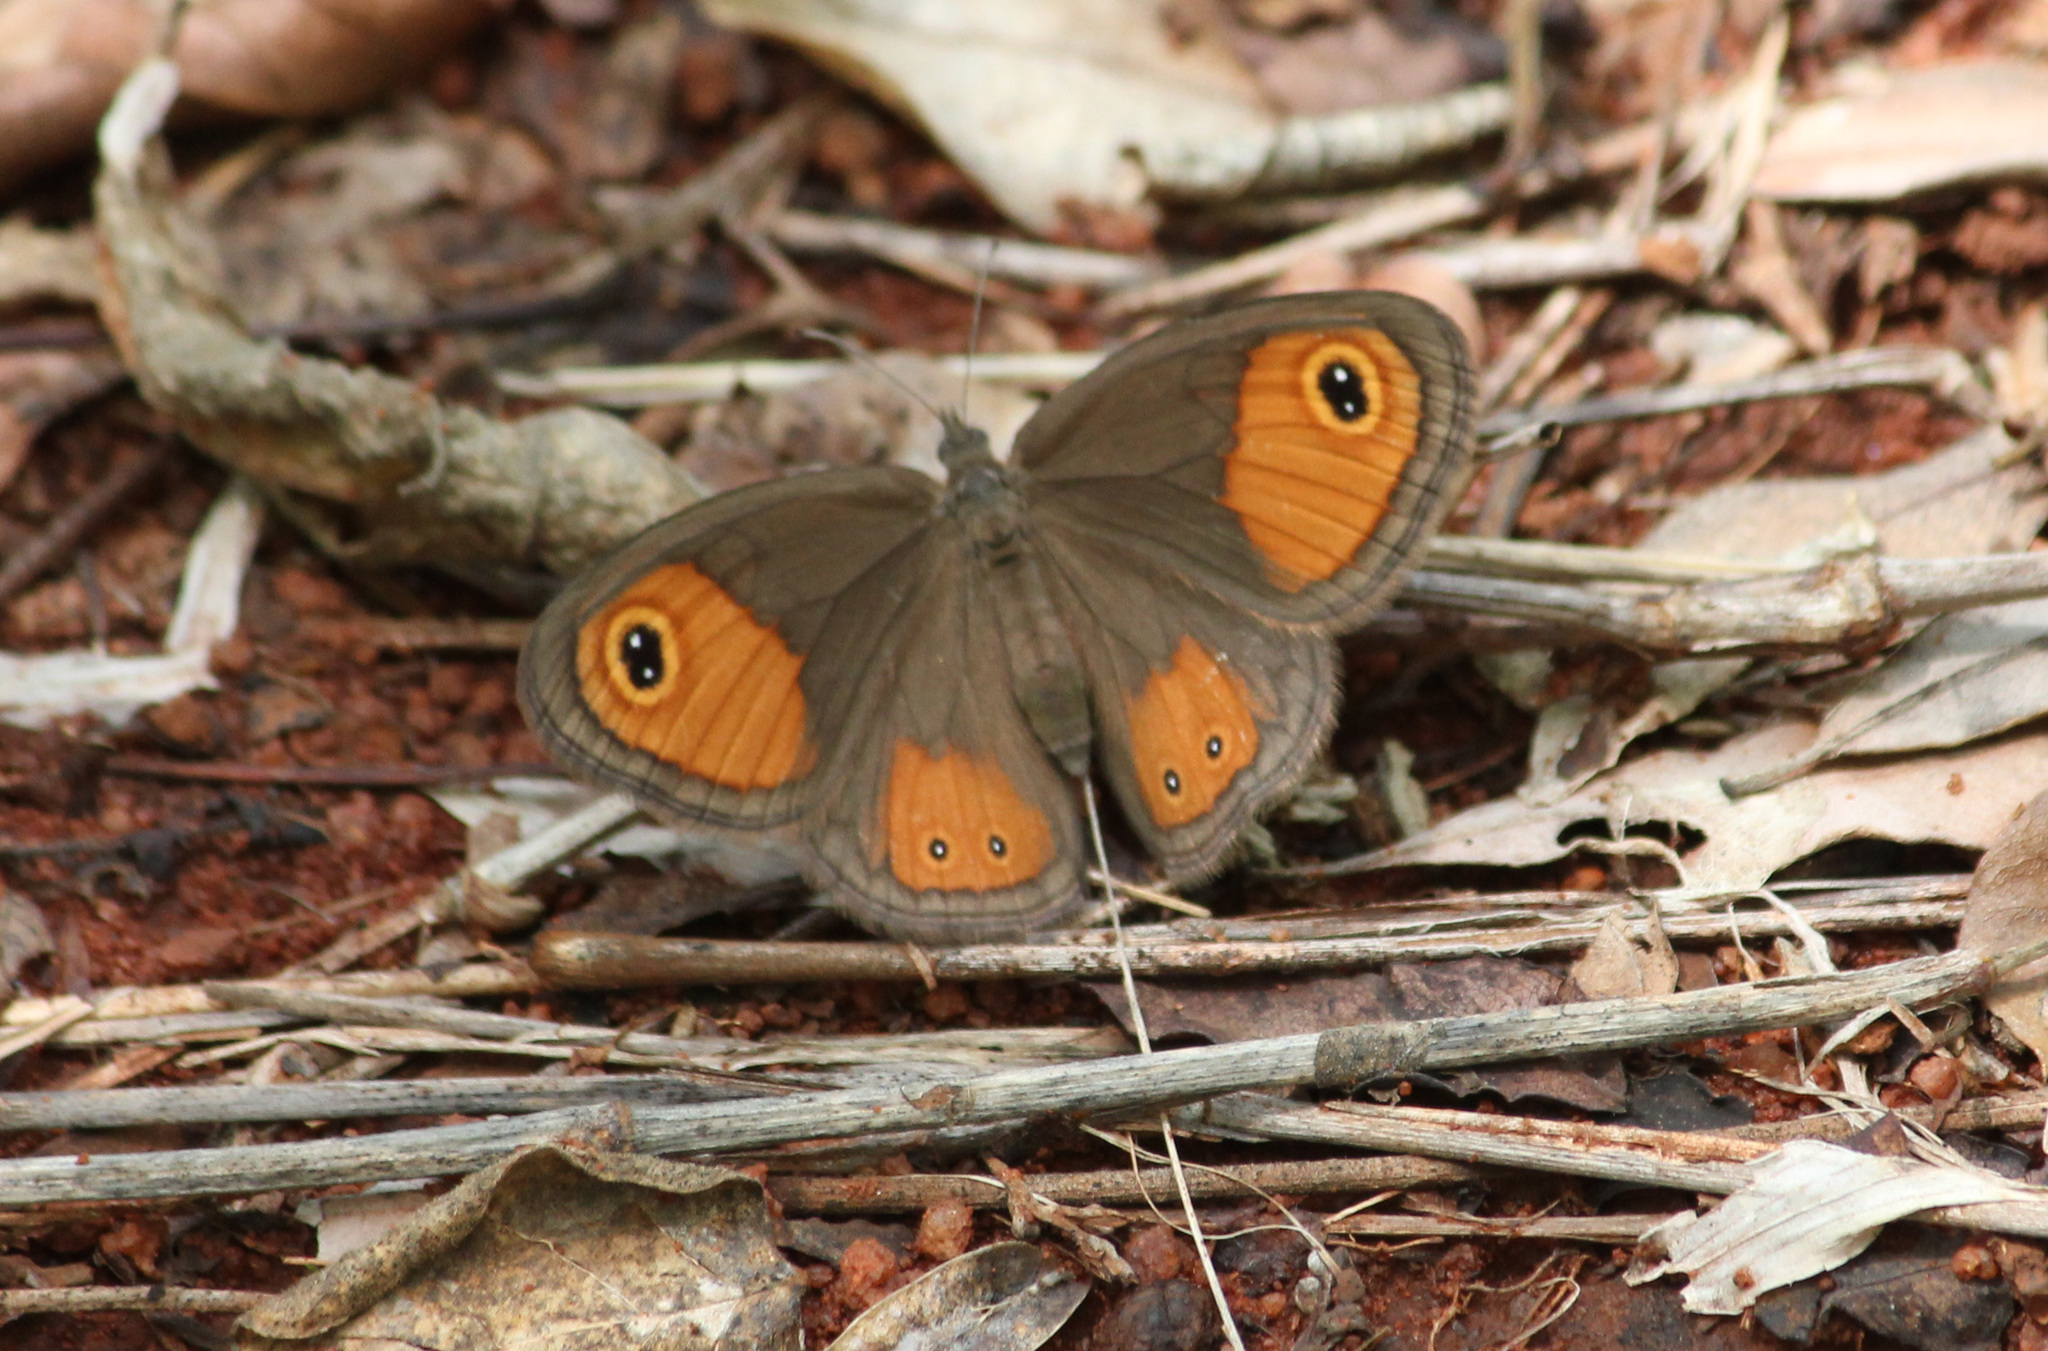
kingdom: Animalia
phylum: Arthropoda
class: Insecta
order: Lepidoptera
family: Nymphalidae
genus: Coenyropsis
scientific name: Coenyropsis natalii
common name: Natal brown
